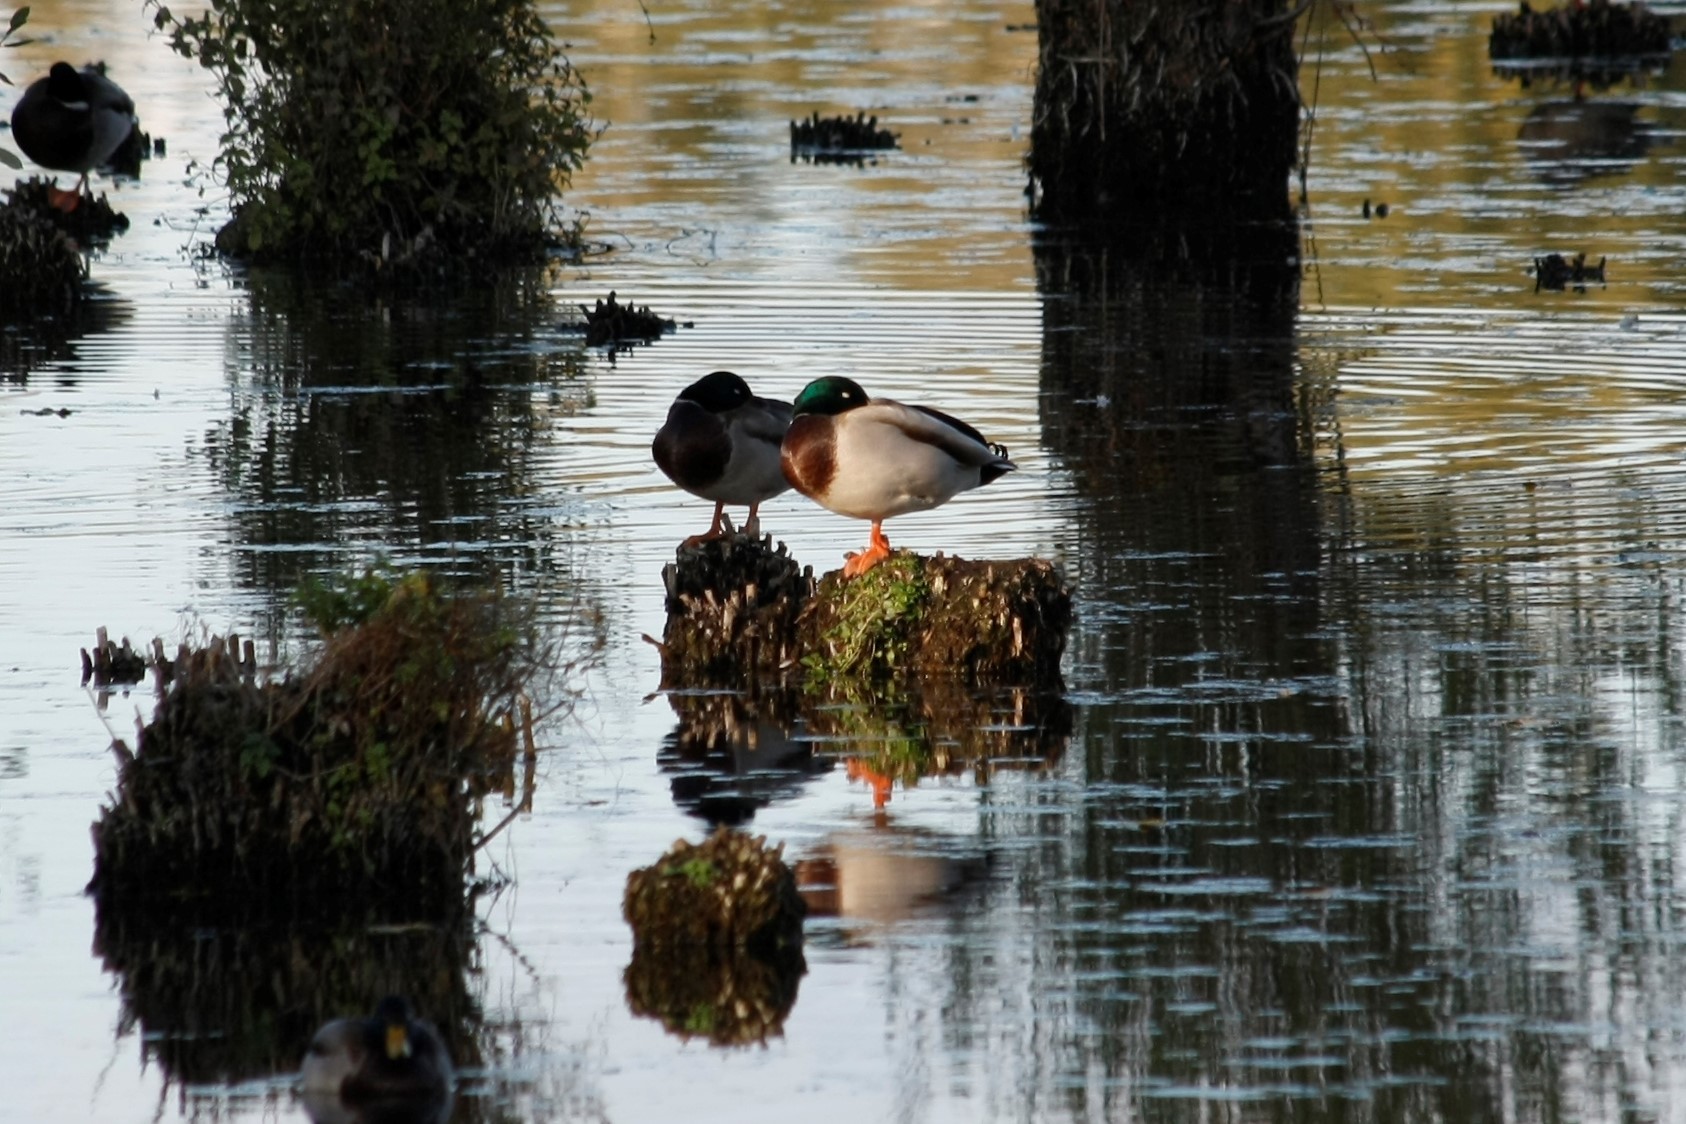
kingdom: Animalia
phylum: Chordata
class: Aves
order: Anseriformes
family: Anatidae
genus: Anas
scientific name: Anas platyrhynchos
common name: Mallard
